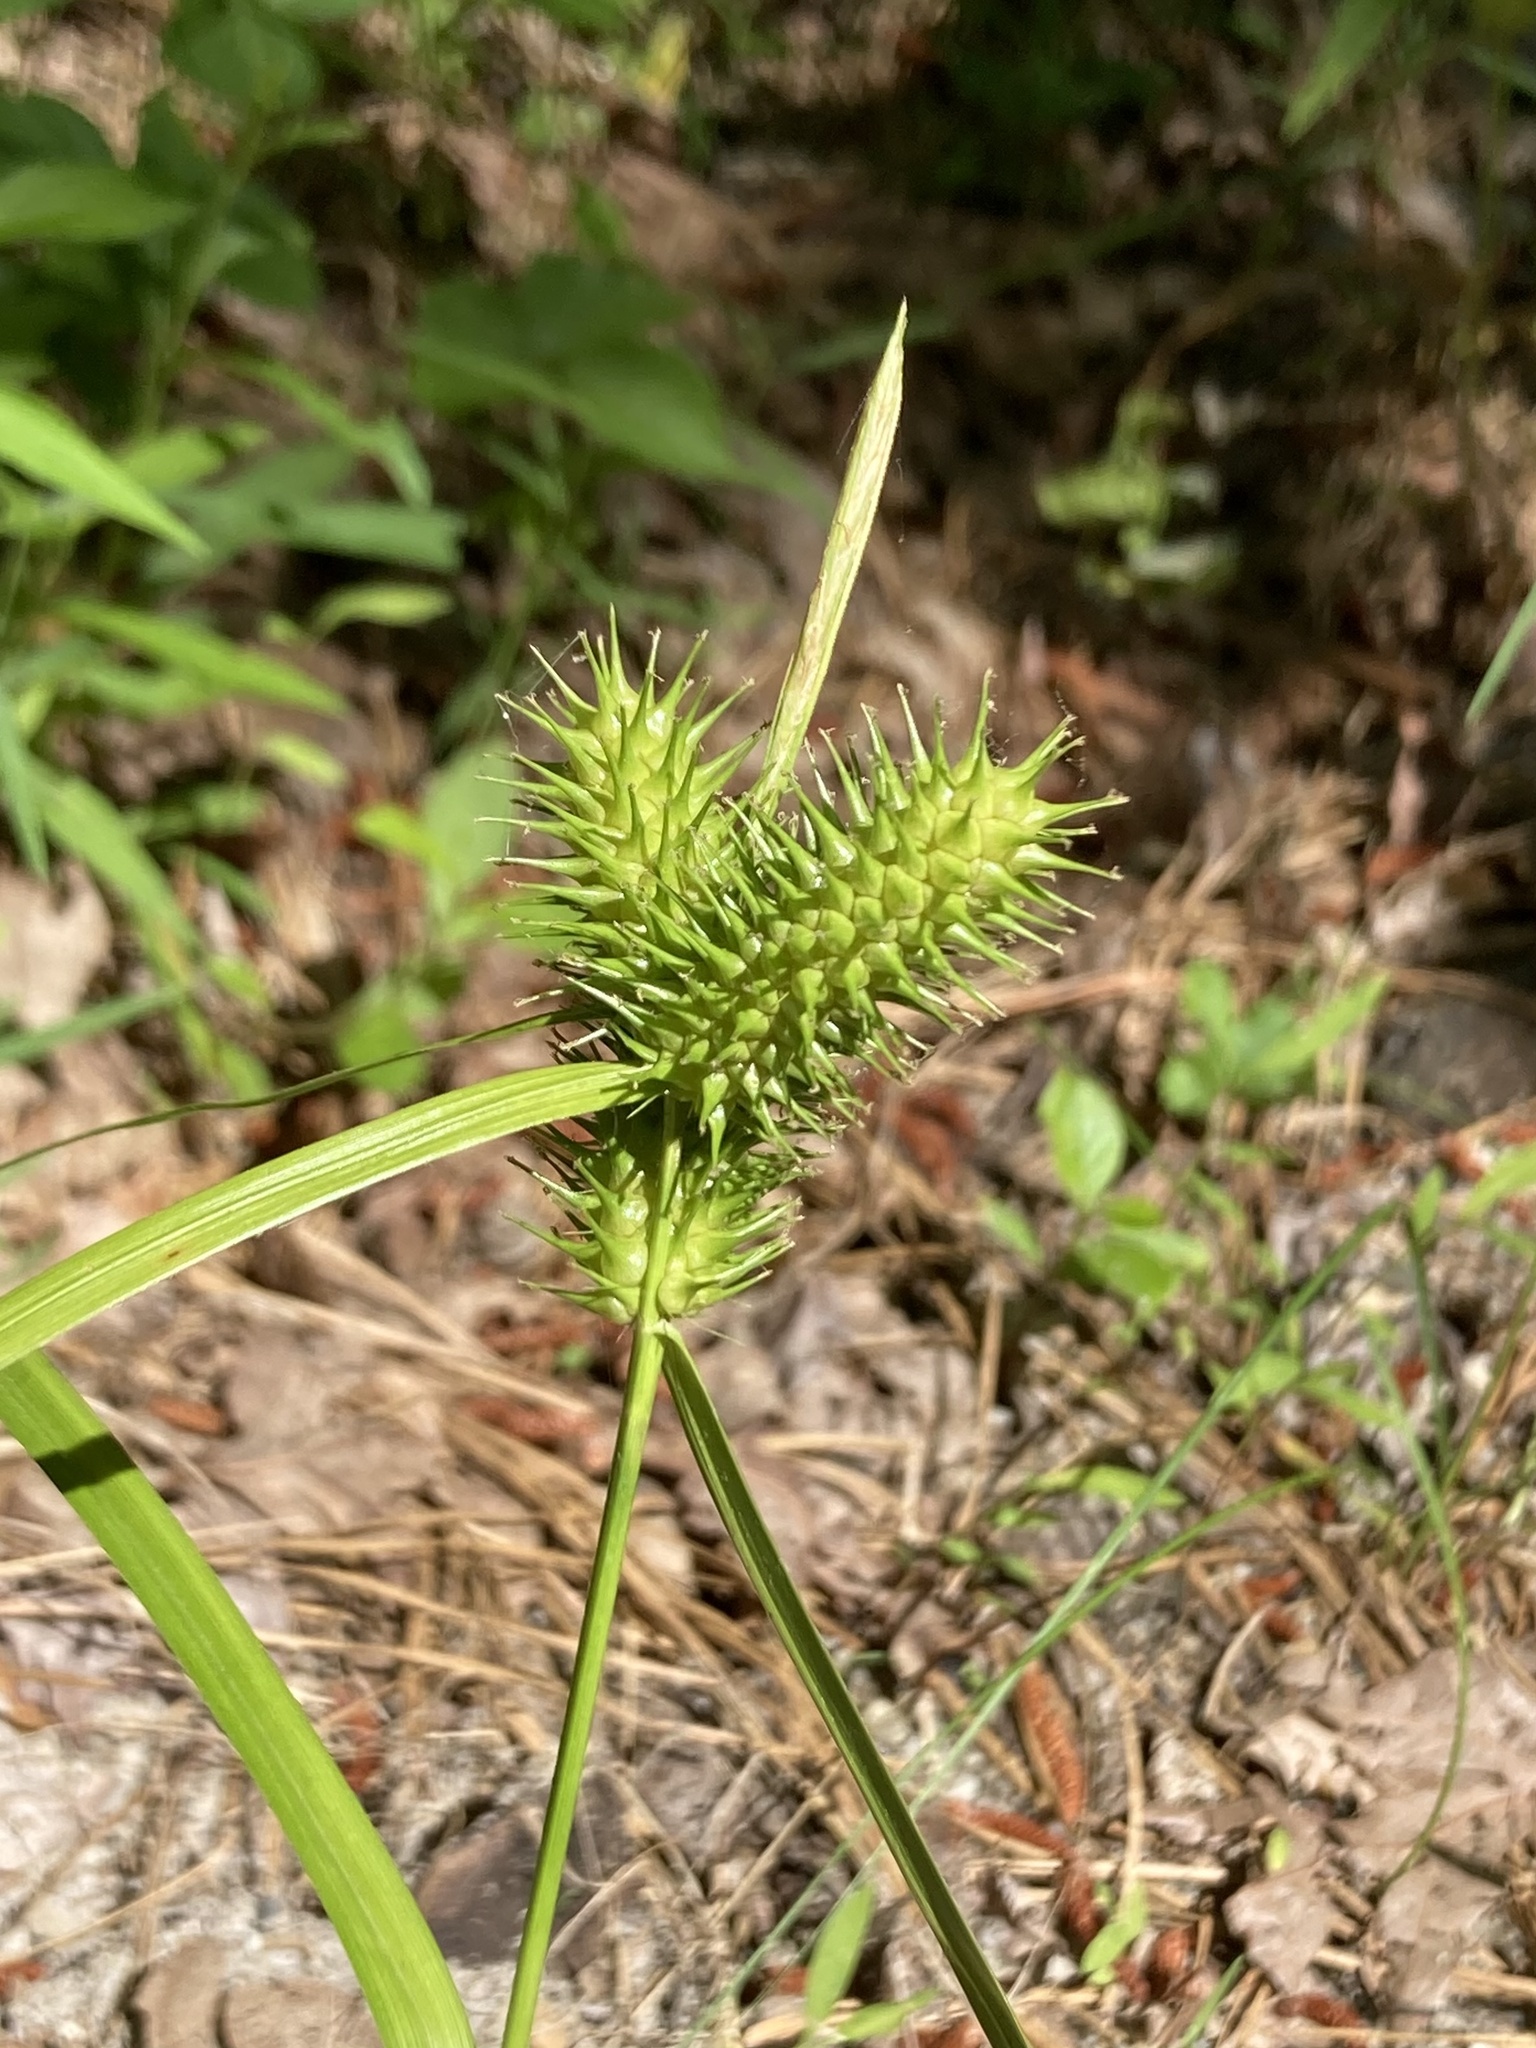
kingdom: Plantae
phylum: Tracheophyta
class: Liliopsida
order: Poales
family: Cyperaceae
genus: Carex
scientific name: Carex lurida
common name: Sallow sedge
